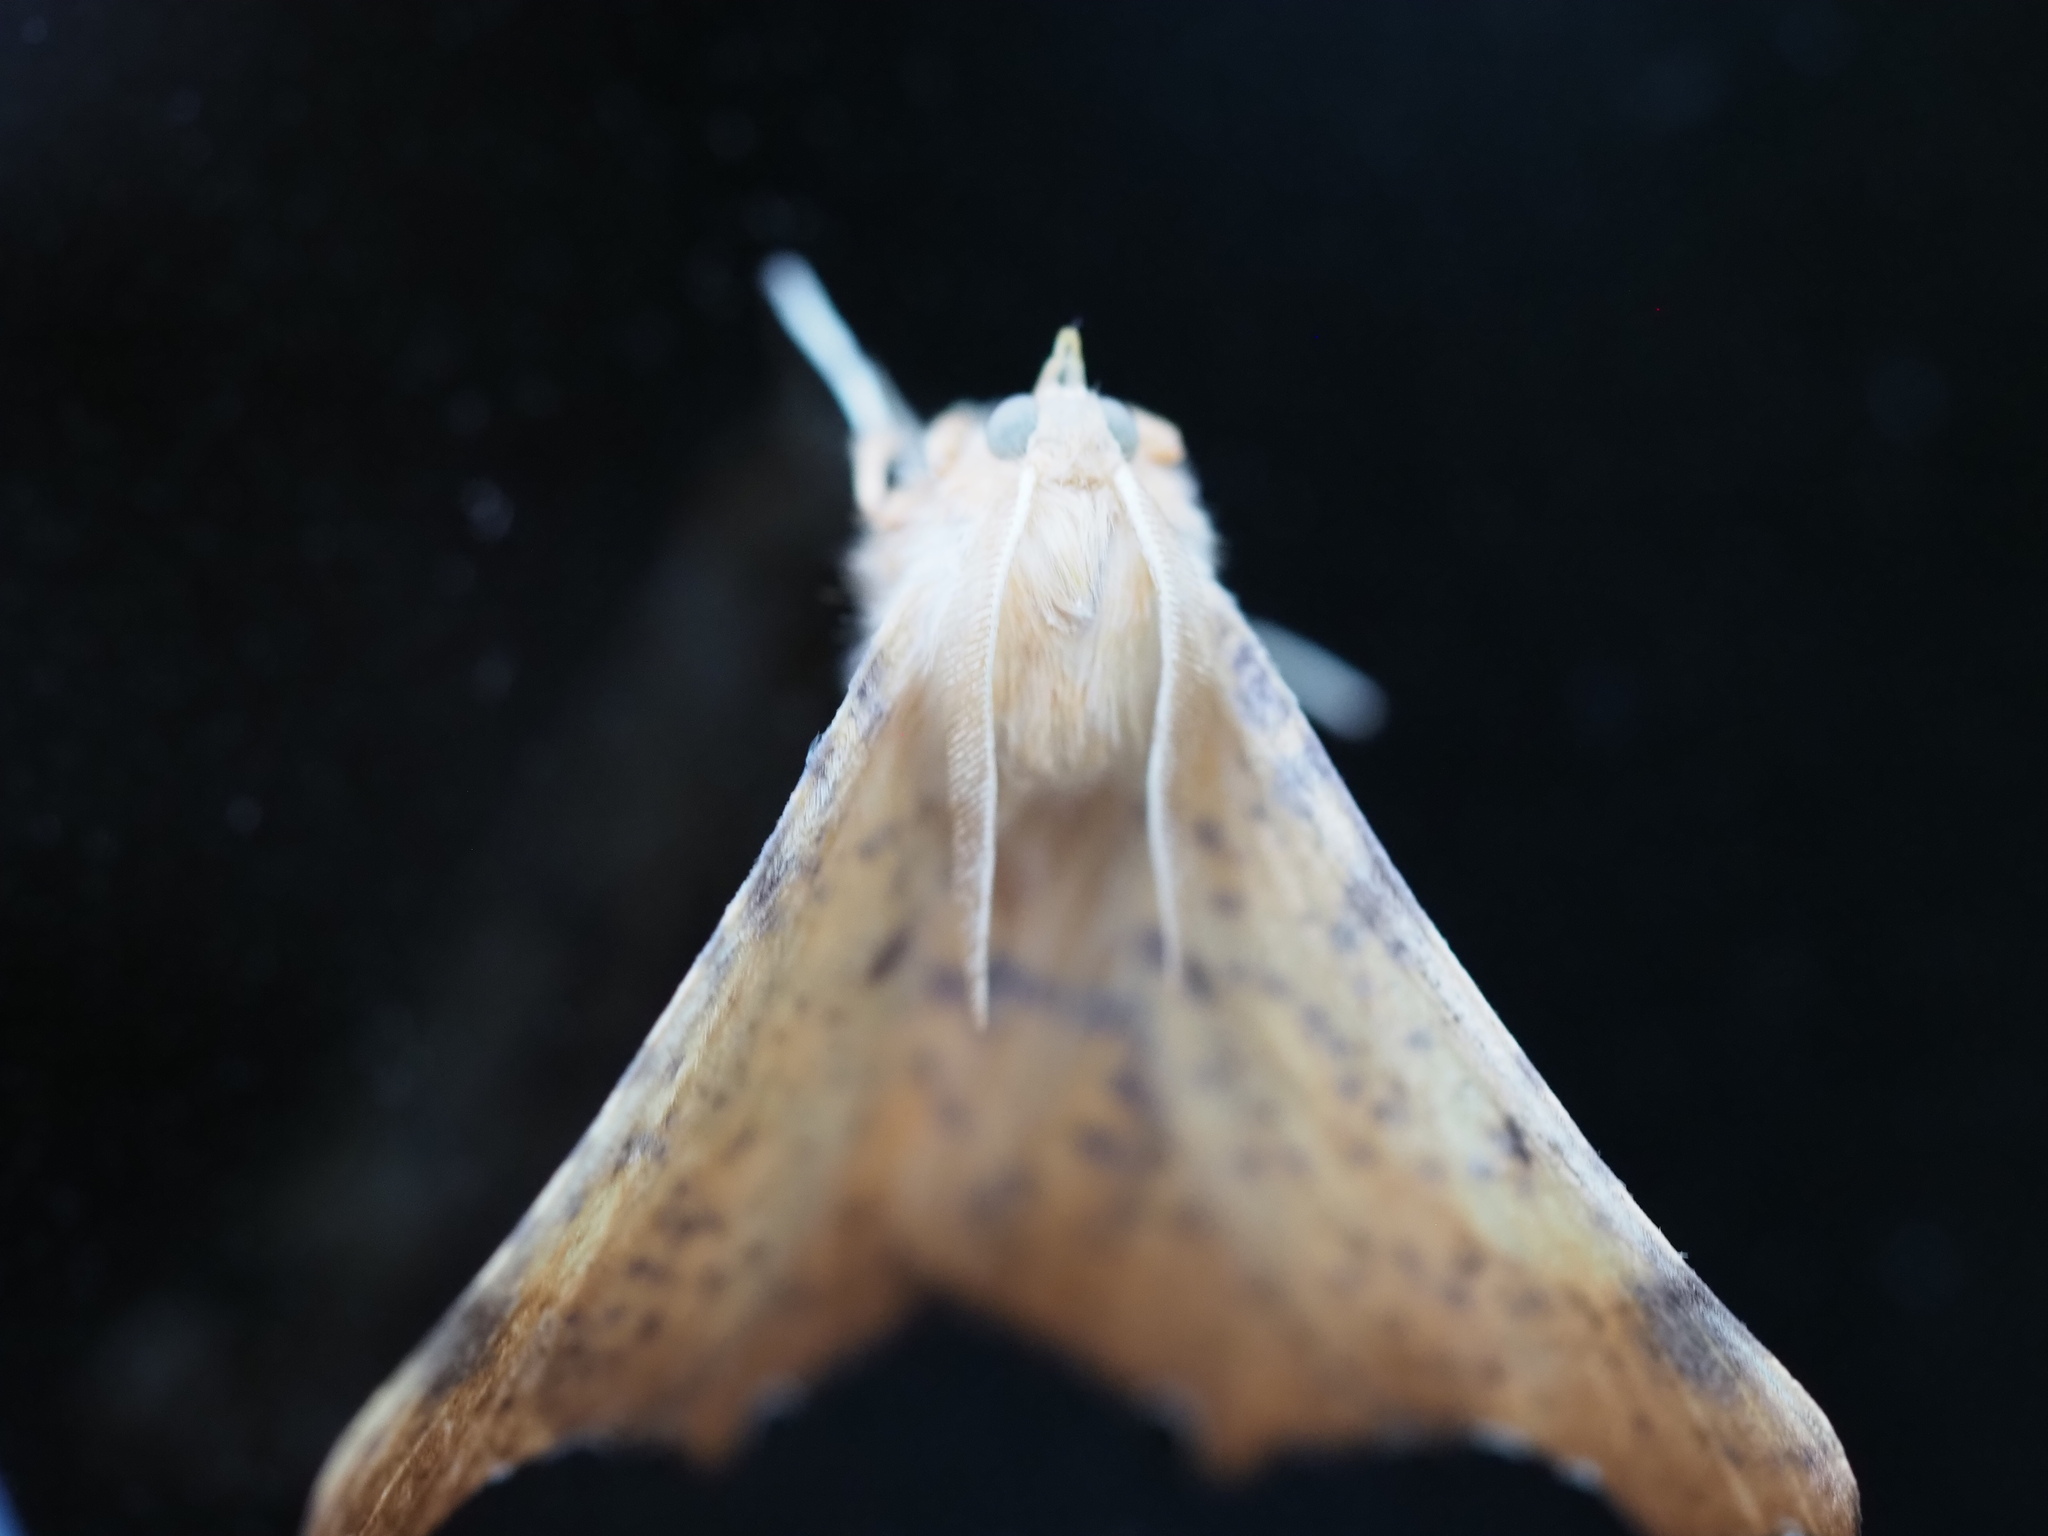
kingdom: Animalia
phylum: Arthropoda
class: Insecta
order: Lepidoptera
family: Geometridae
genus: Ennomos
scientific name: Ennomos magnaria
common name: Maple spanworm
